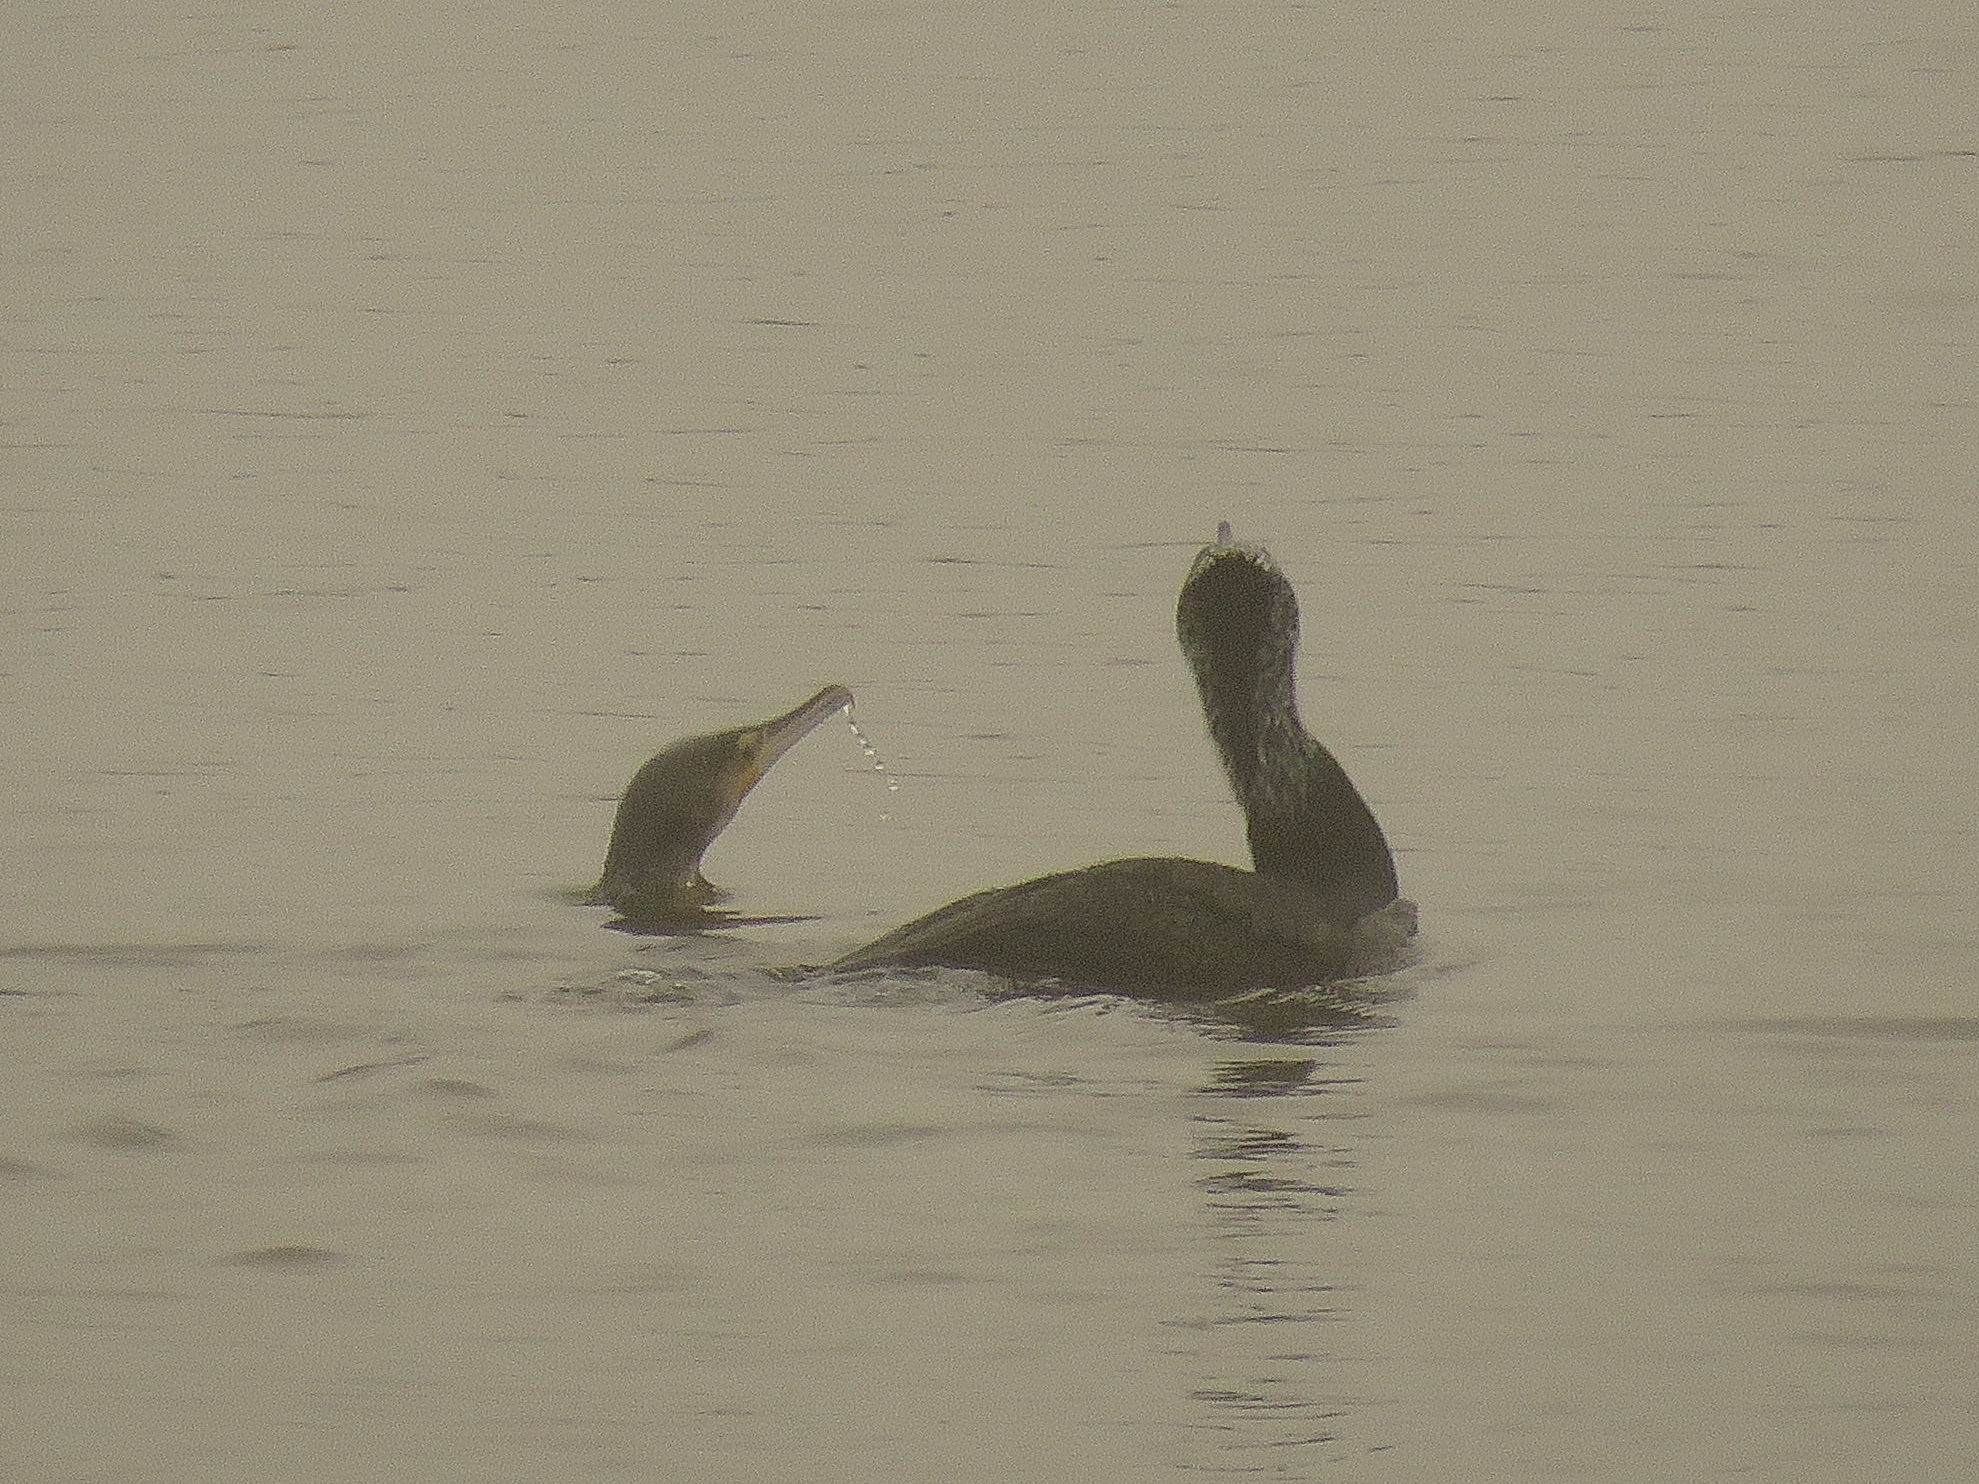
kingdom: Animalia
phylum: Chordata
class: Aves
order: Suliformes
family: Phalacrocoracidae
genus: Phalacrocorax
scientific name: Phalacrocorax carbo
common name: Great cormorant
